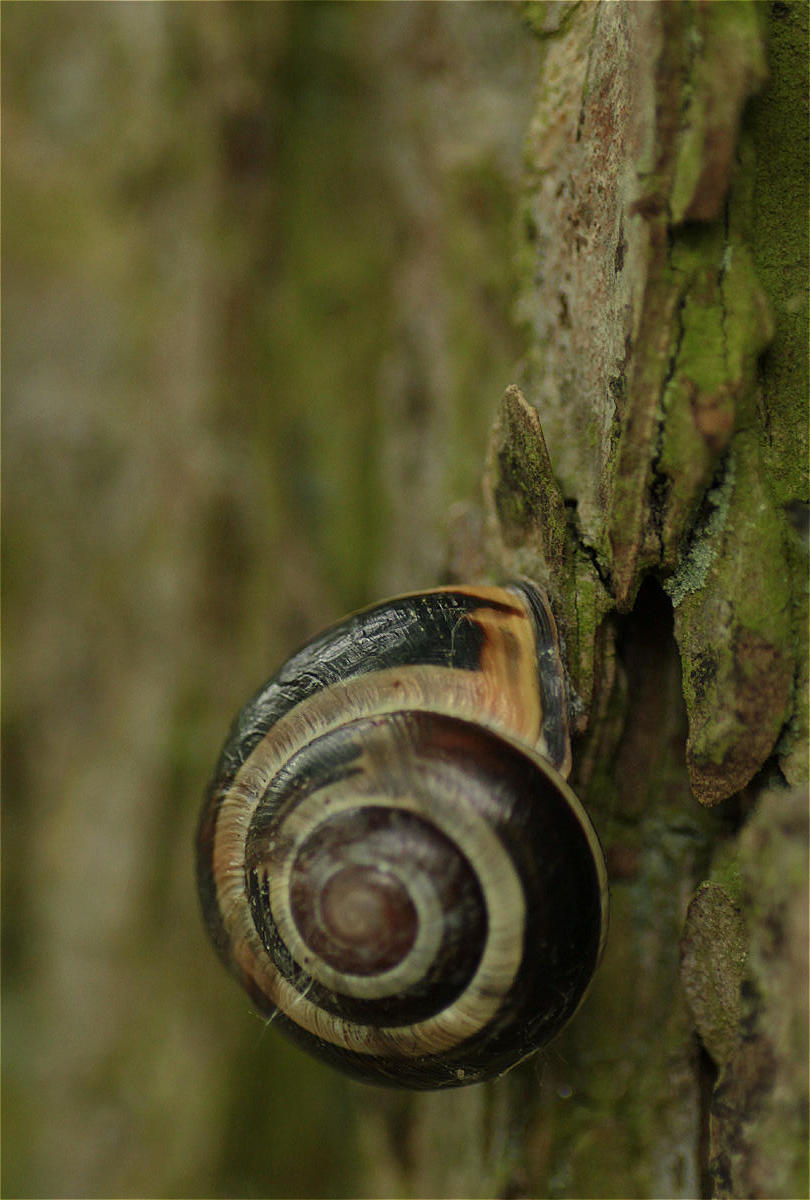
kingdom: Animalia
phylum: Mollusca
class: Gastropoda
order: Stylommatophora
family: Helicidae
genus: Cepaea
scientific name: Cepaea nemoralis
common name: Grovesnail
